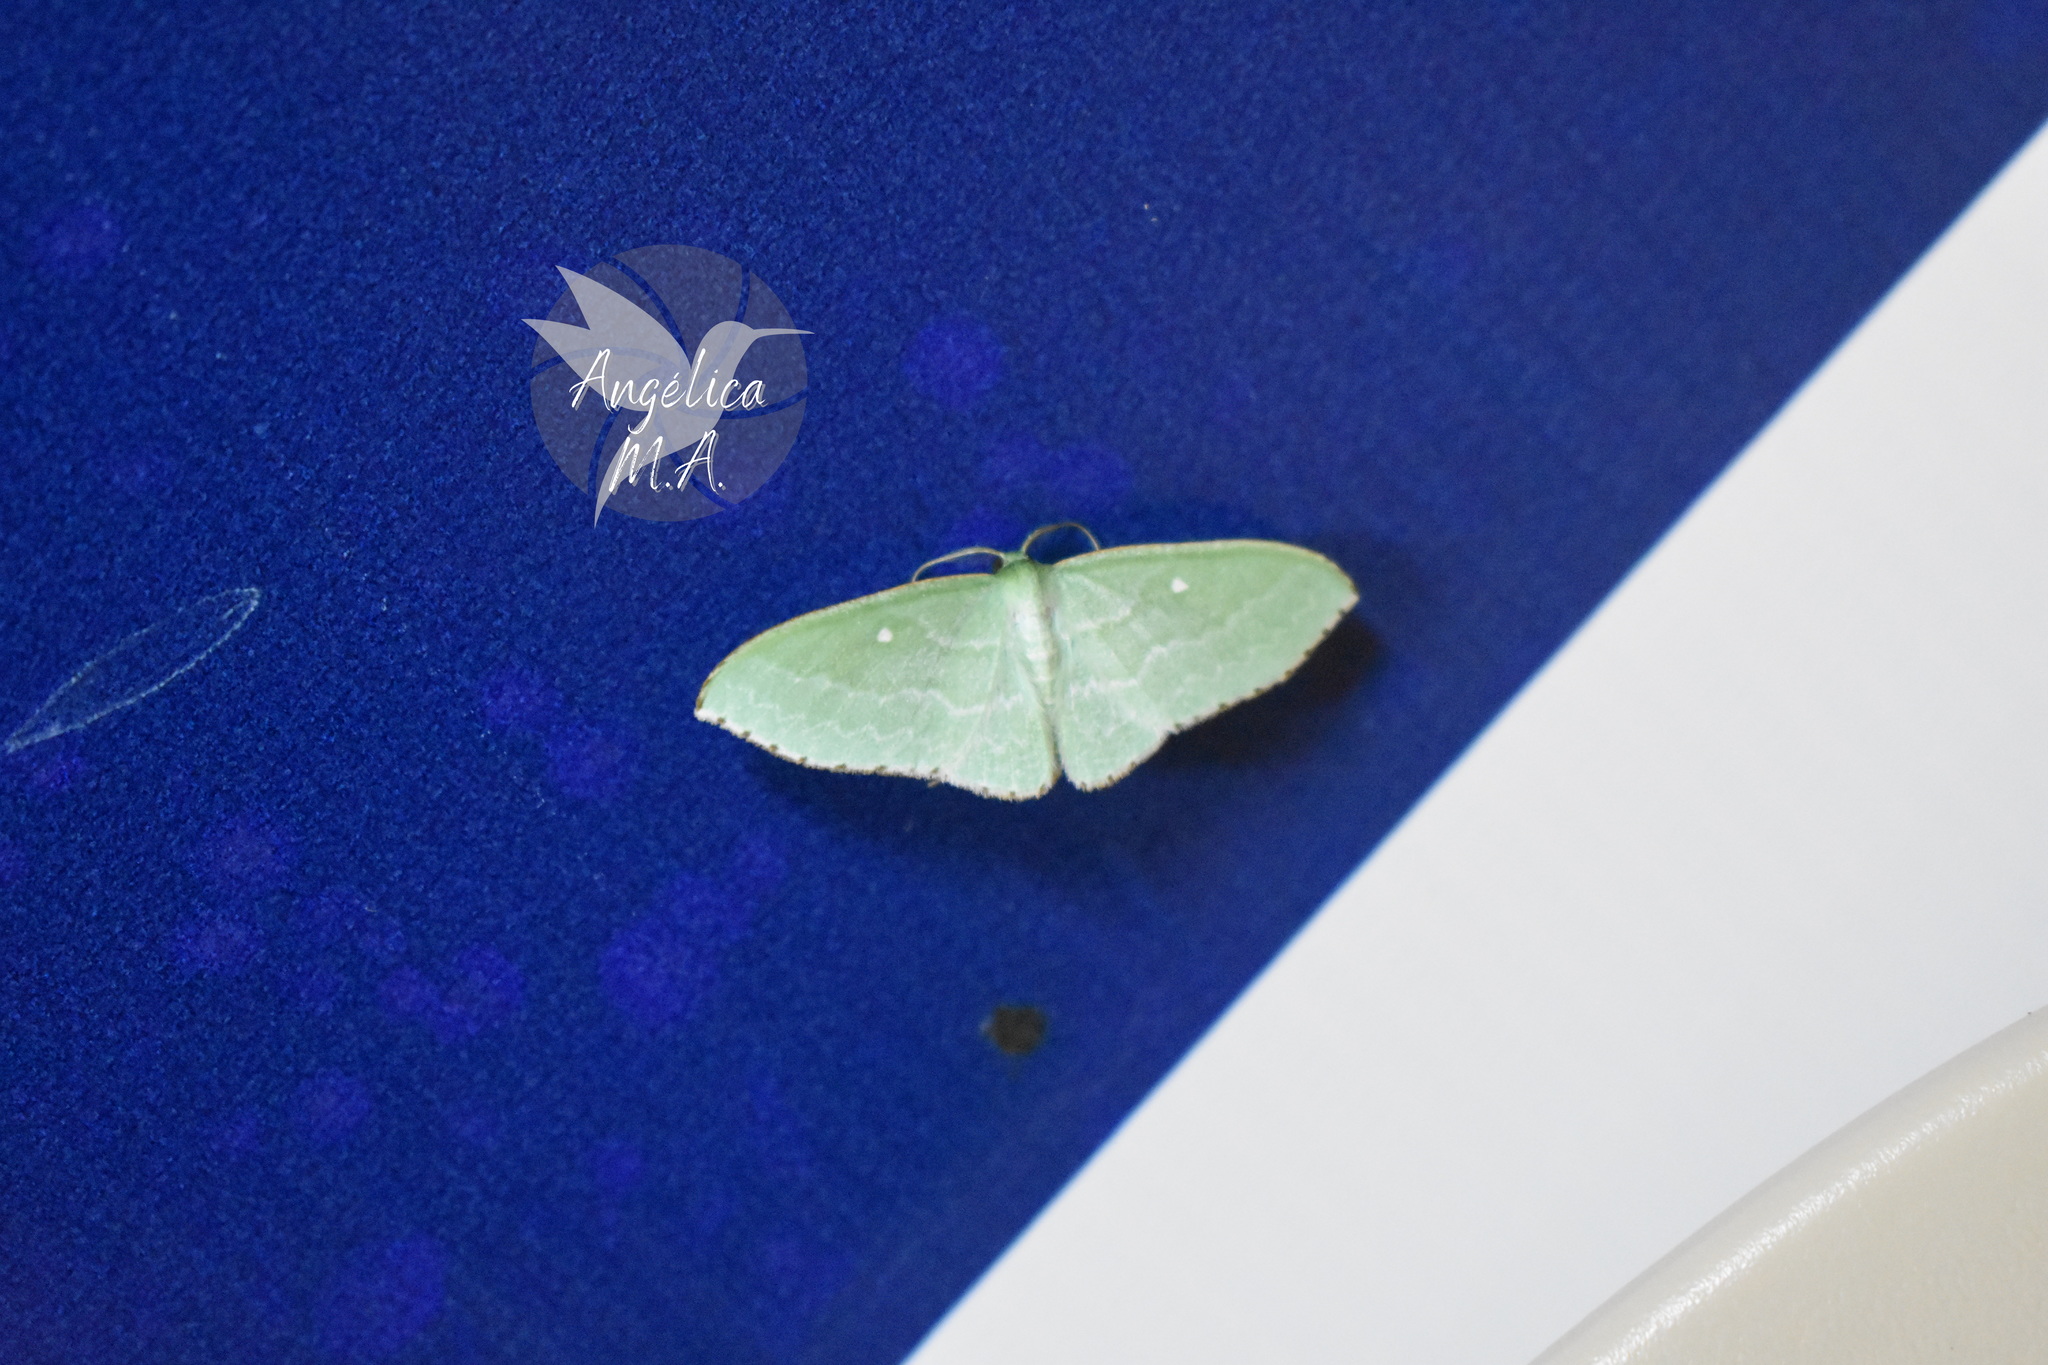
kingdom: Animalia
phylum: Arthropoda
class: Insecta
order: Lepidoptera
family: Geometridae
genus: Dyspteris
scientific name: Dyspteris abortivaria
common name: Bad-wing
